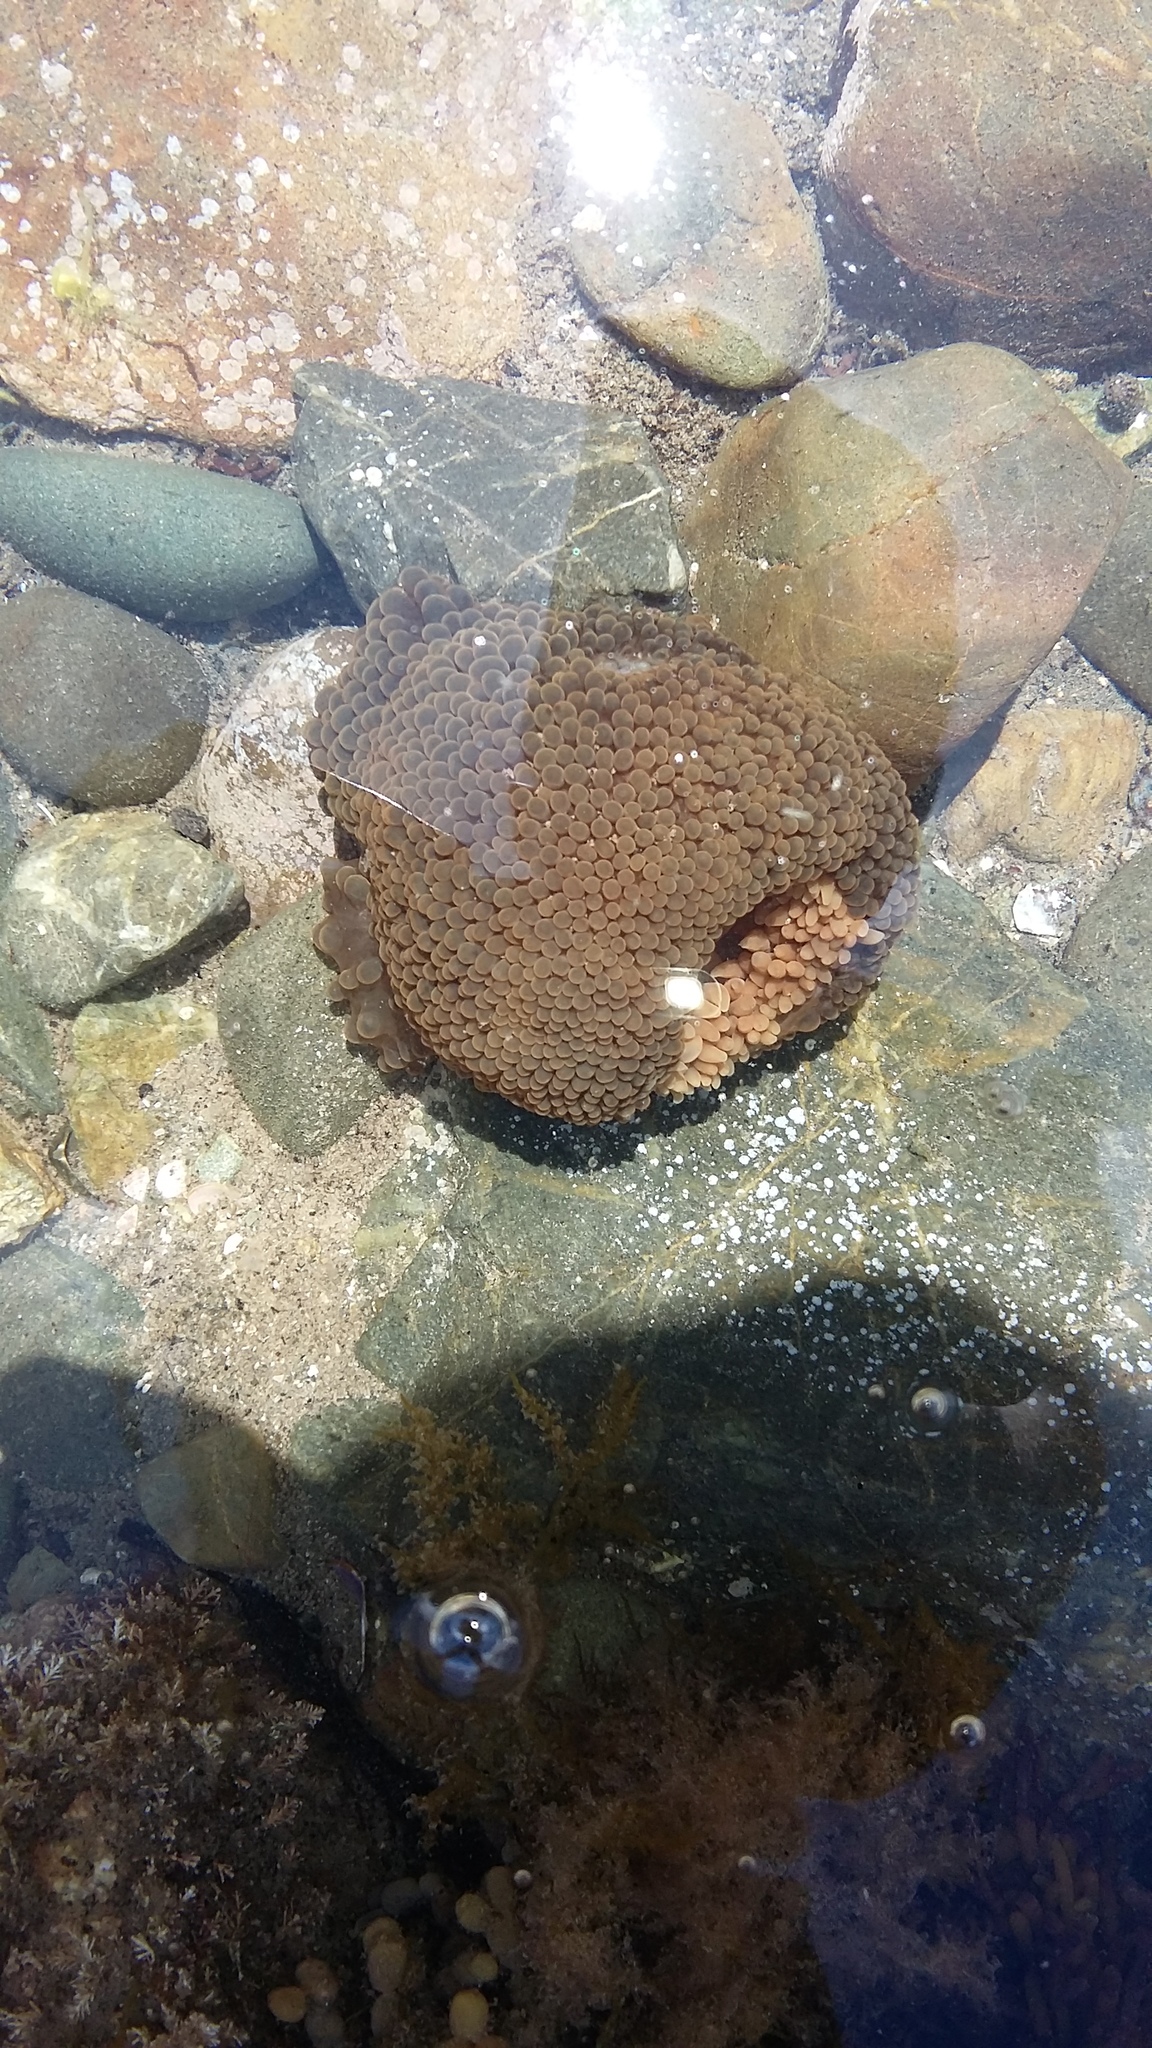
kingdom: Animalia
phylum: Cnidaria
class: Anthozoa
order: Actiniaria
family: Actiniidae
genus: Phlyctenactis
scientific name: Phlyctenactis tuberculosa
